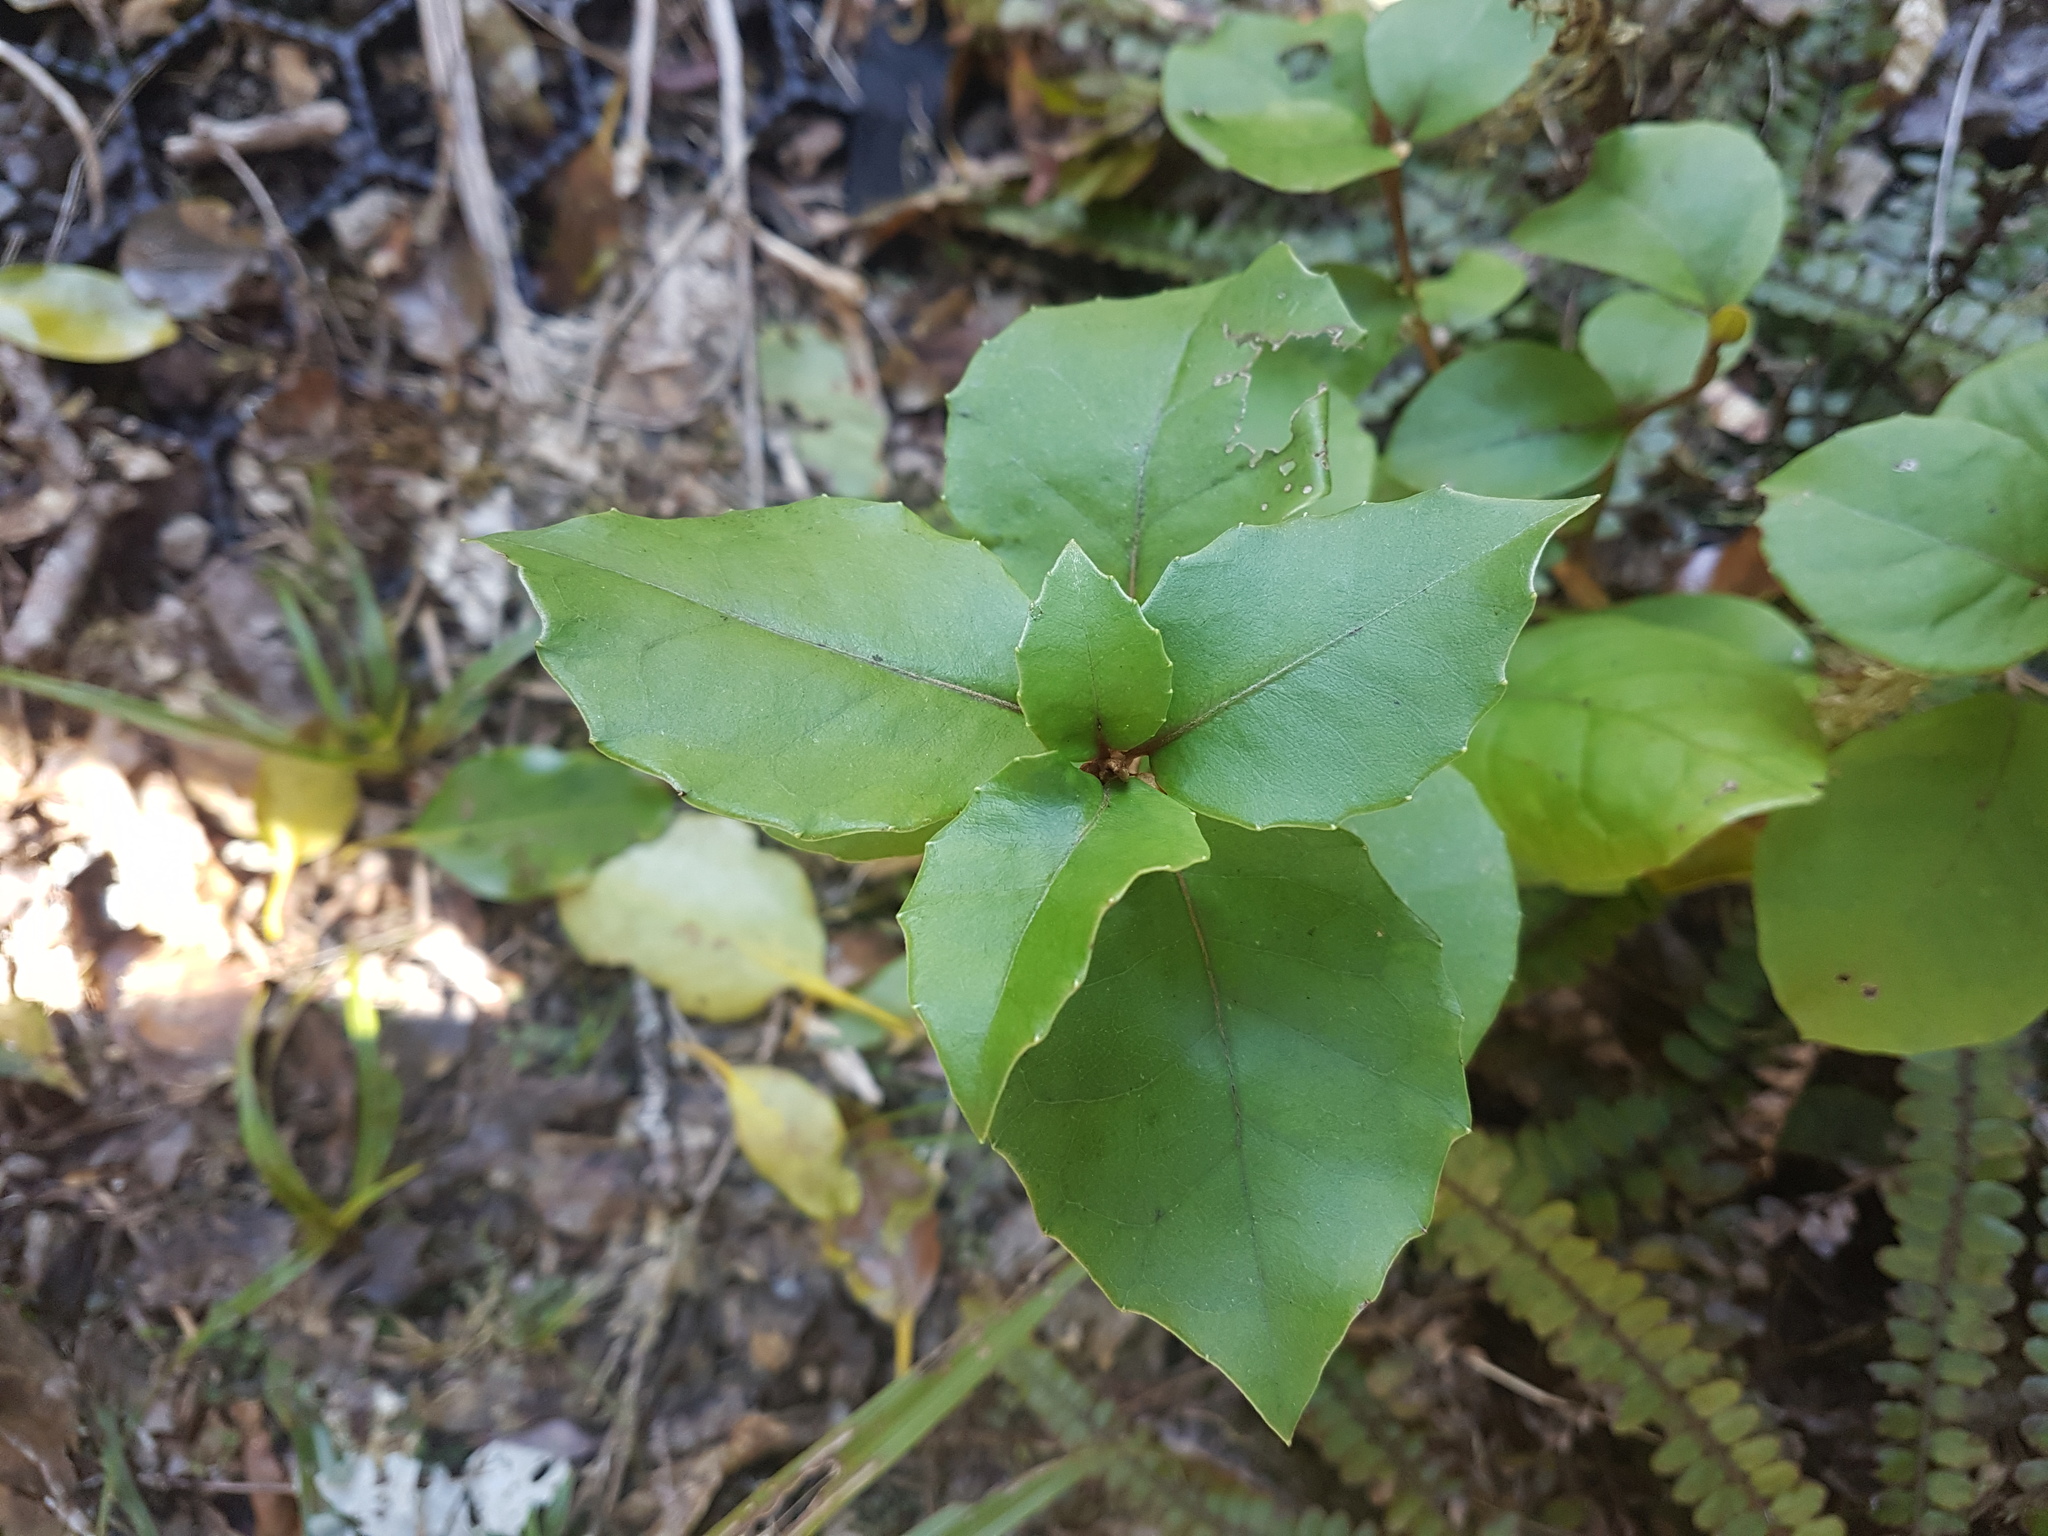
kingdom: Plantae
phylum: Tracheophyta
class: Magnoliopsida
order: Asterales
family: Asteraceae
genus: Olearia
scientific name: Olearia arborescens
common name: Glossy tree daisy
